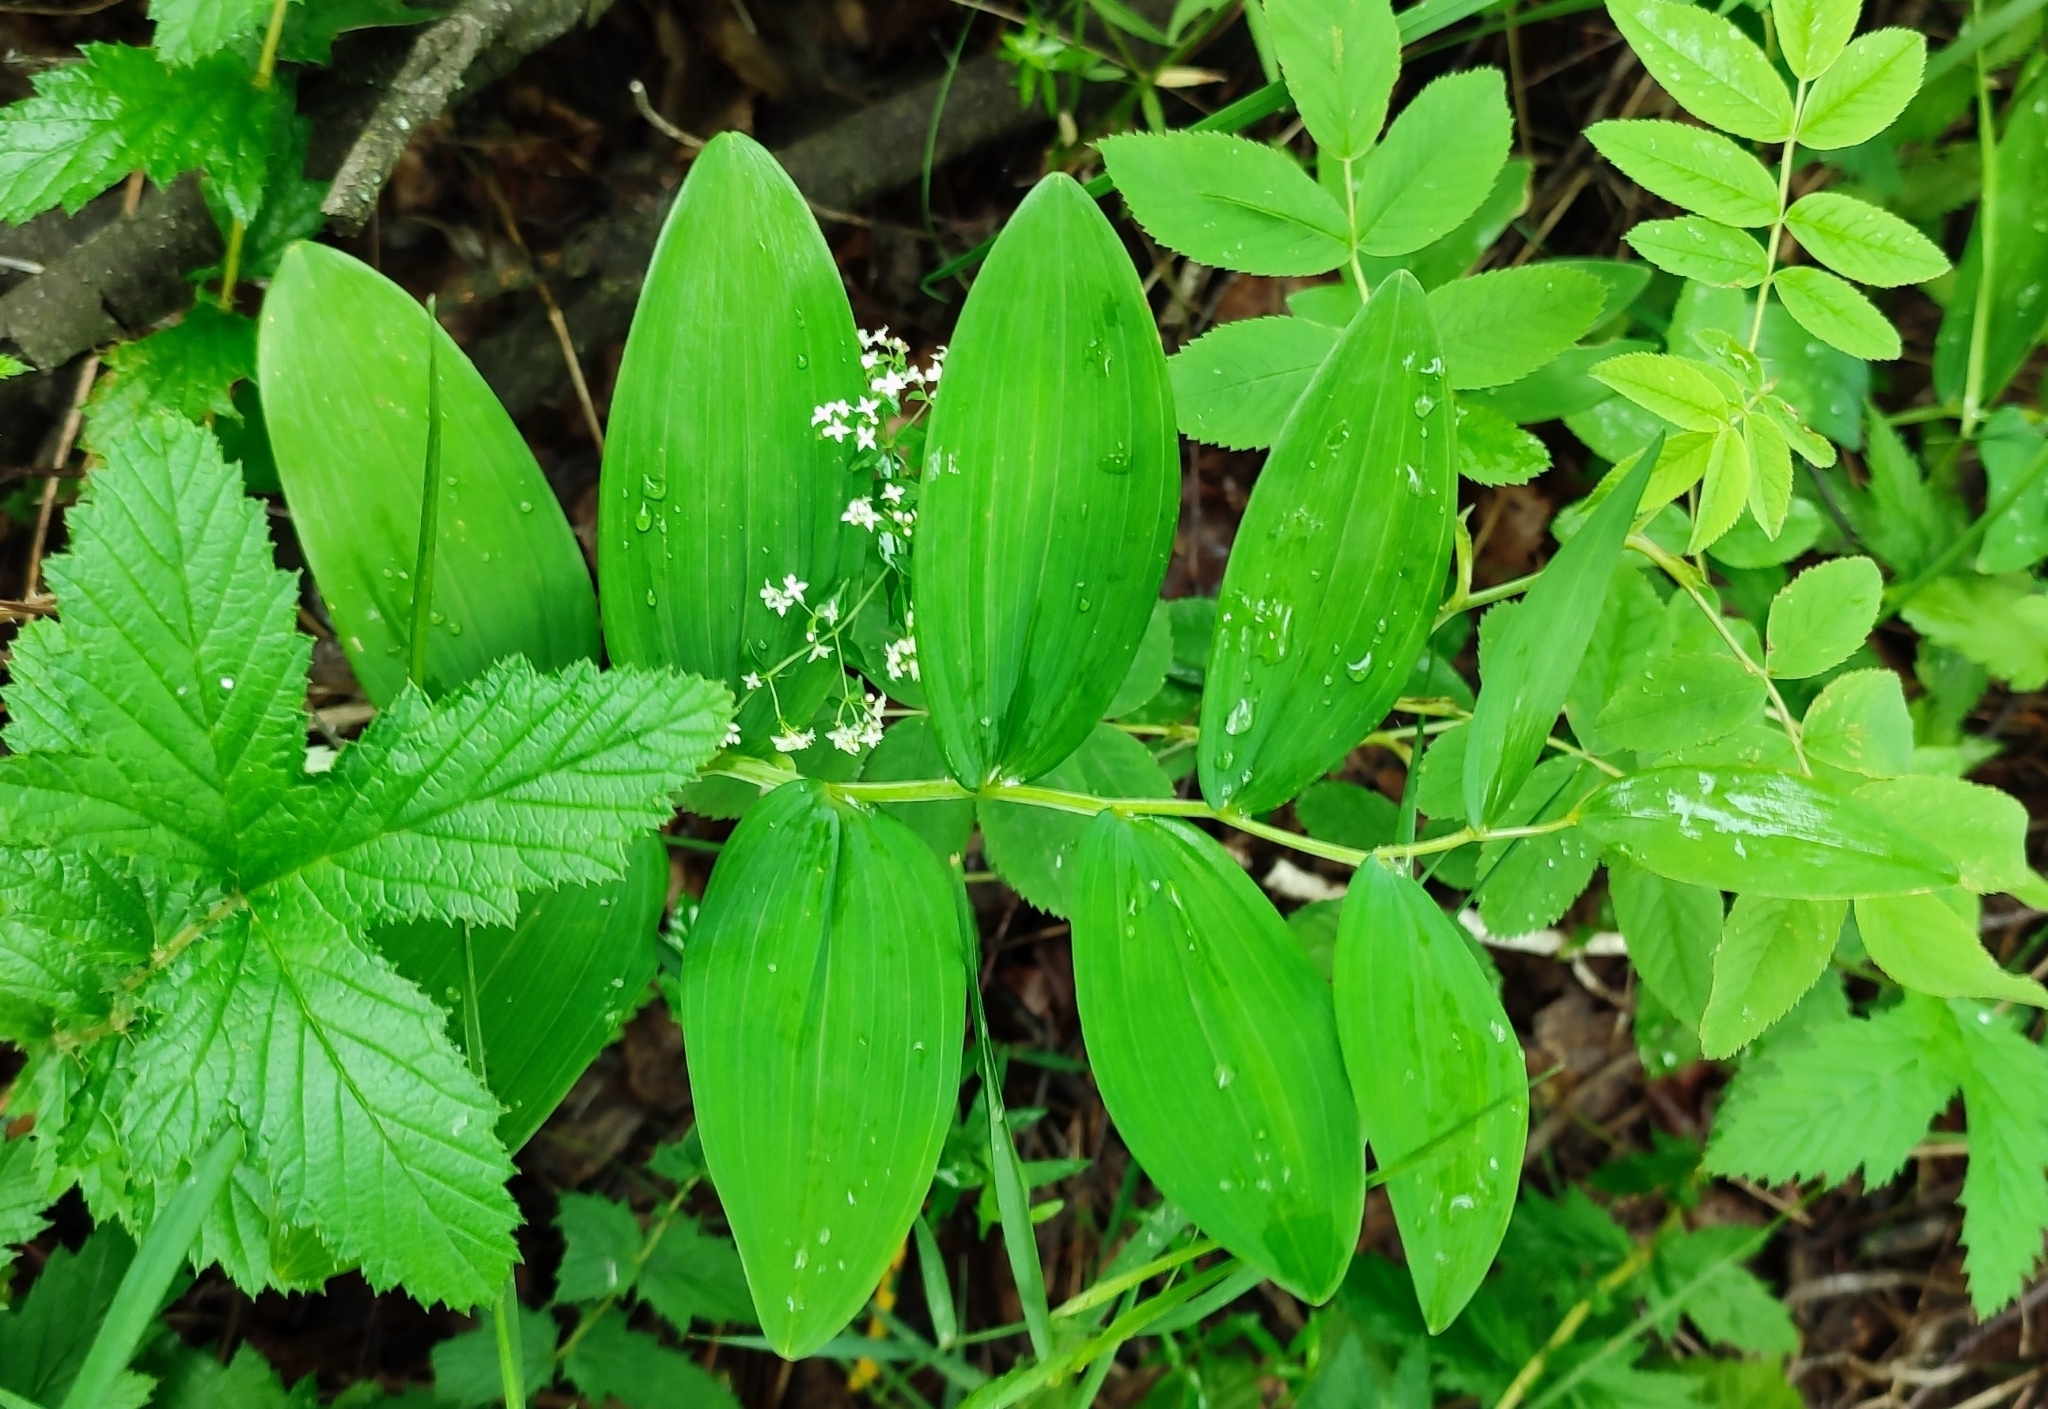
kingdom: Plantae
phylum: Tracheophyta
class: Liliopsida
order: Asparagales
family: Asparagaceae
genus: Polygonatum
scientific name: Polygonatum odoratum
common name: Angular solomon's-seal
